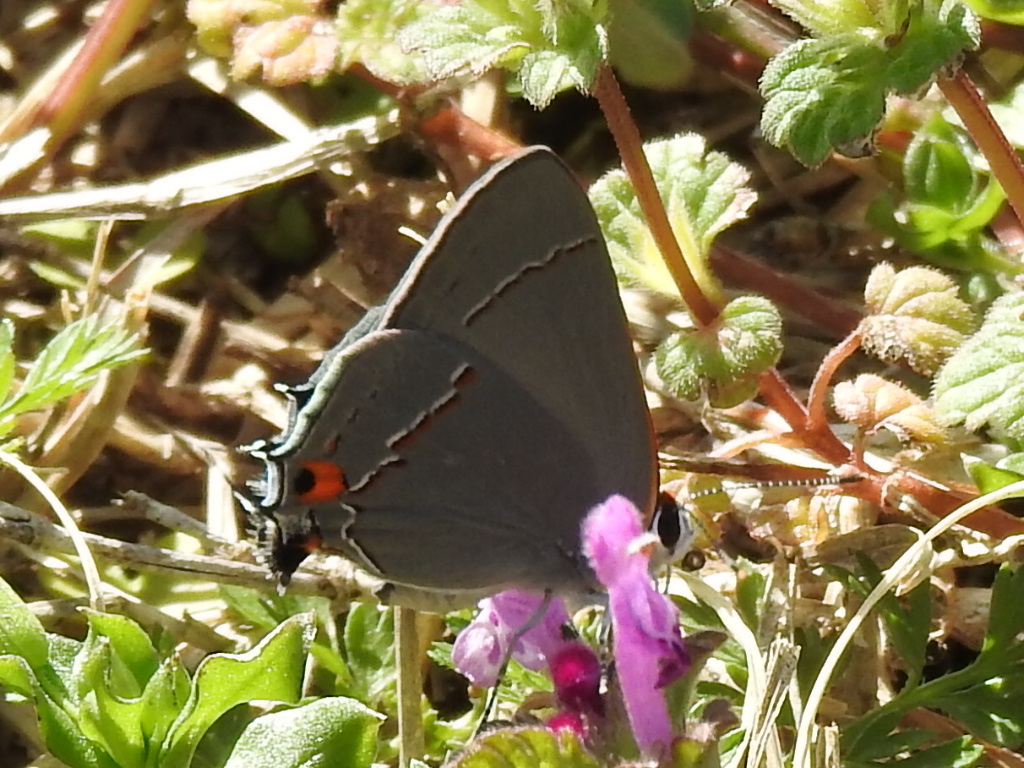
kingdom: Animalia
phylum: Arthropoda
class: Insecta
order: Lepidoptera
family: Lycaenidae
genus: Strymon
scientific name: Strymon melinus
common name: Gray hairstreak
